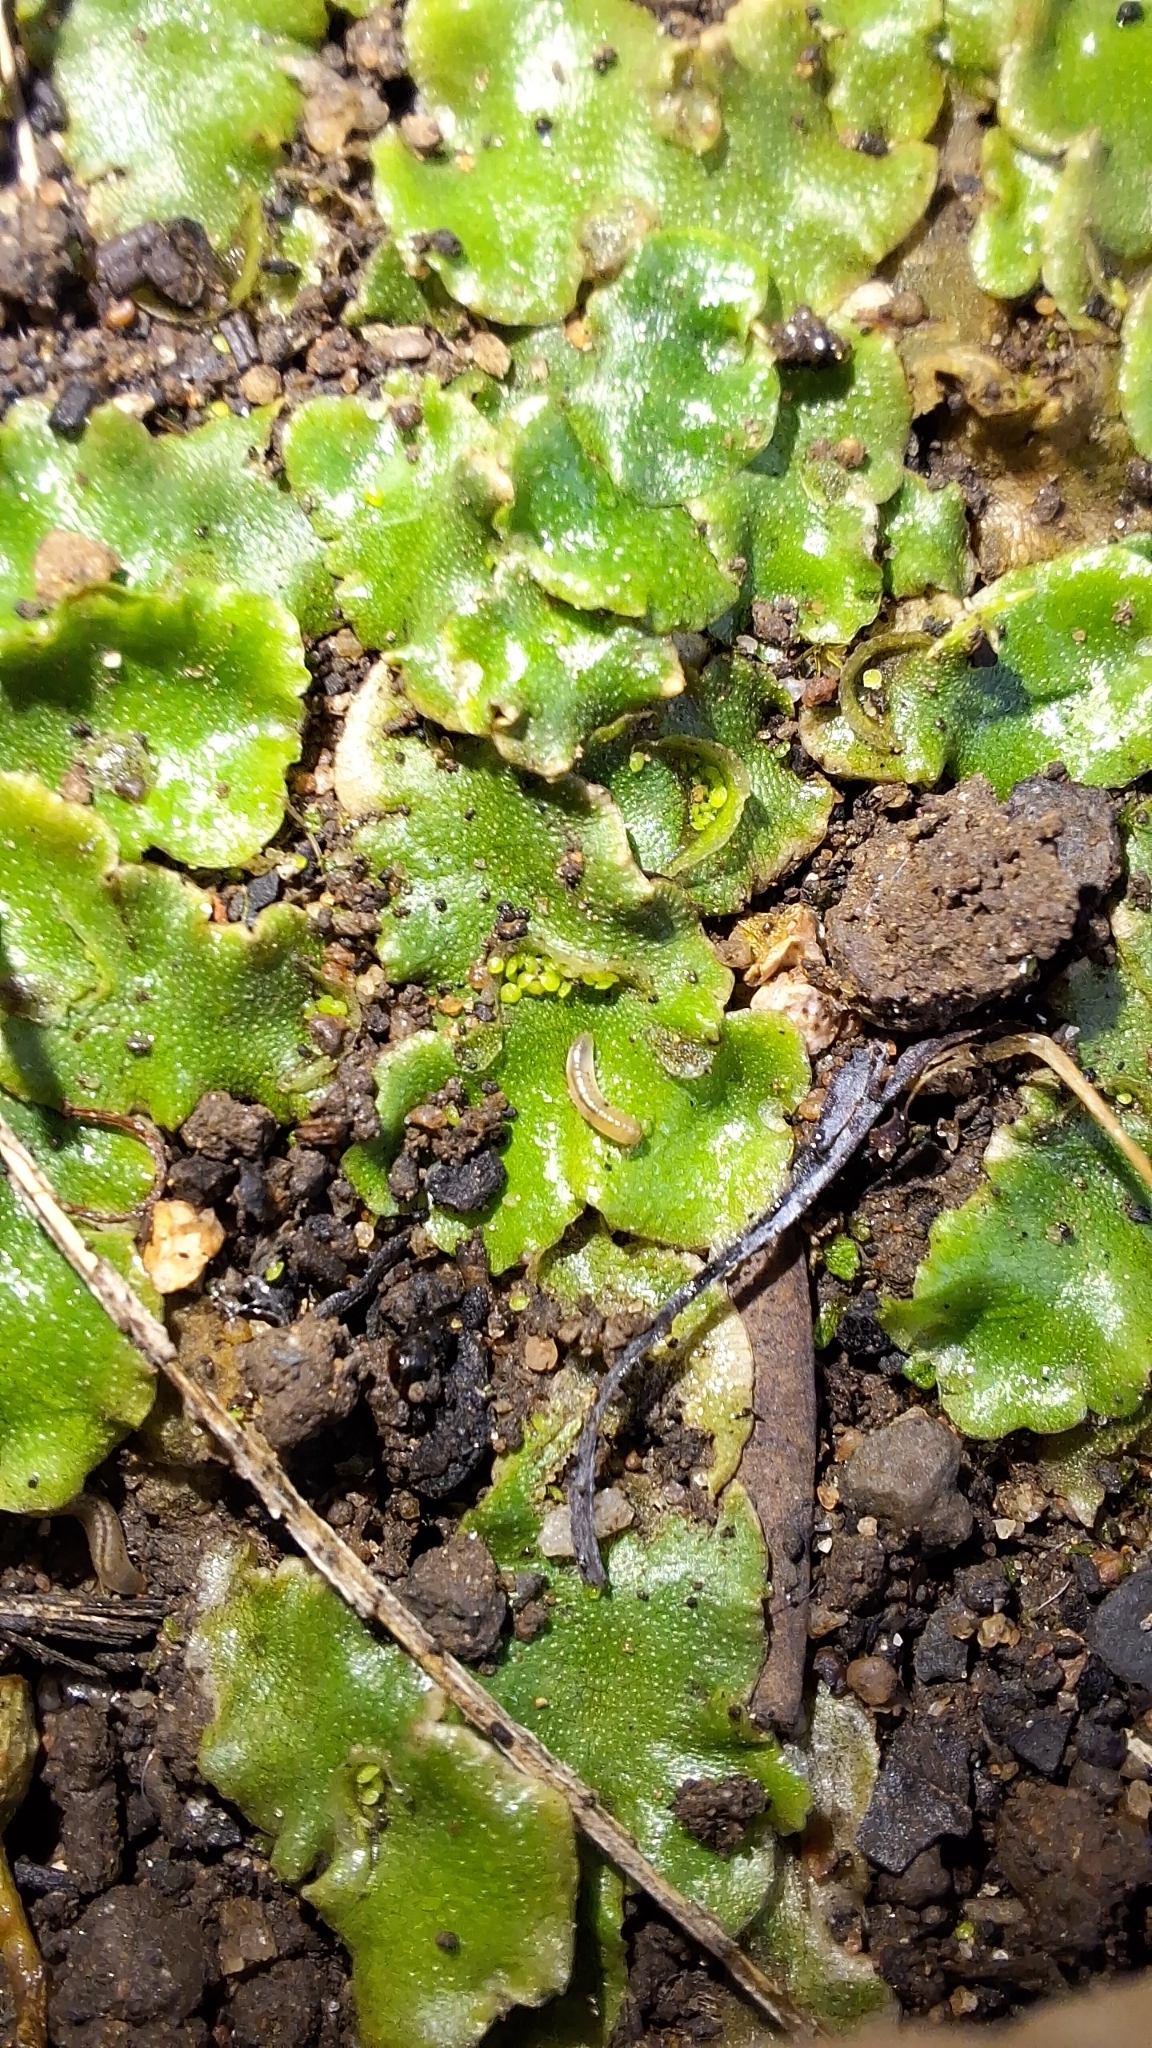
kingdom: Plantae
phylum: Marchantiophyta
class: Marchantiopsida
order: Lunulariales
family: Lunulariaceae
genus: Lunularia
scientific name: Lunularia cruciata
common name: Crescent-cup liverwort
